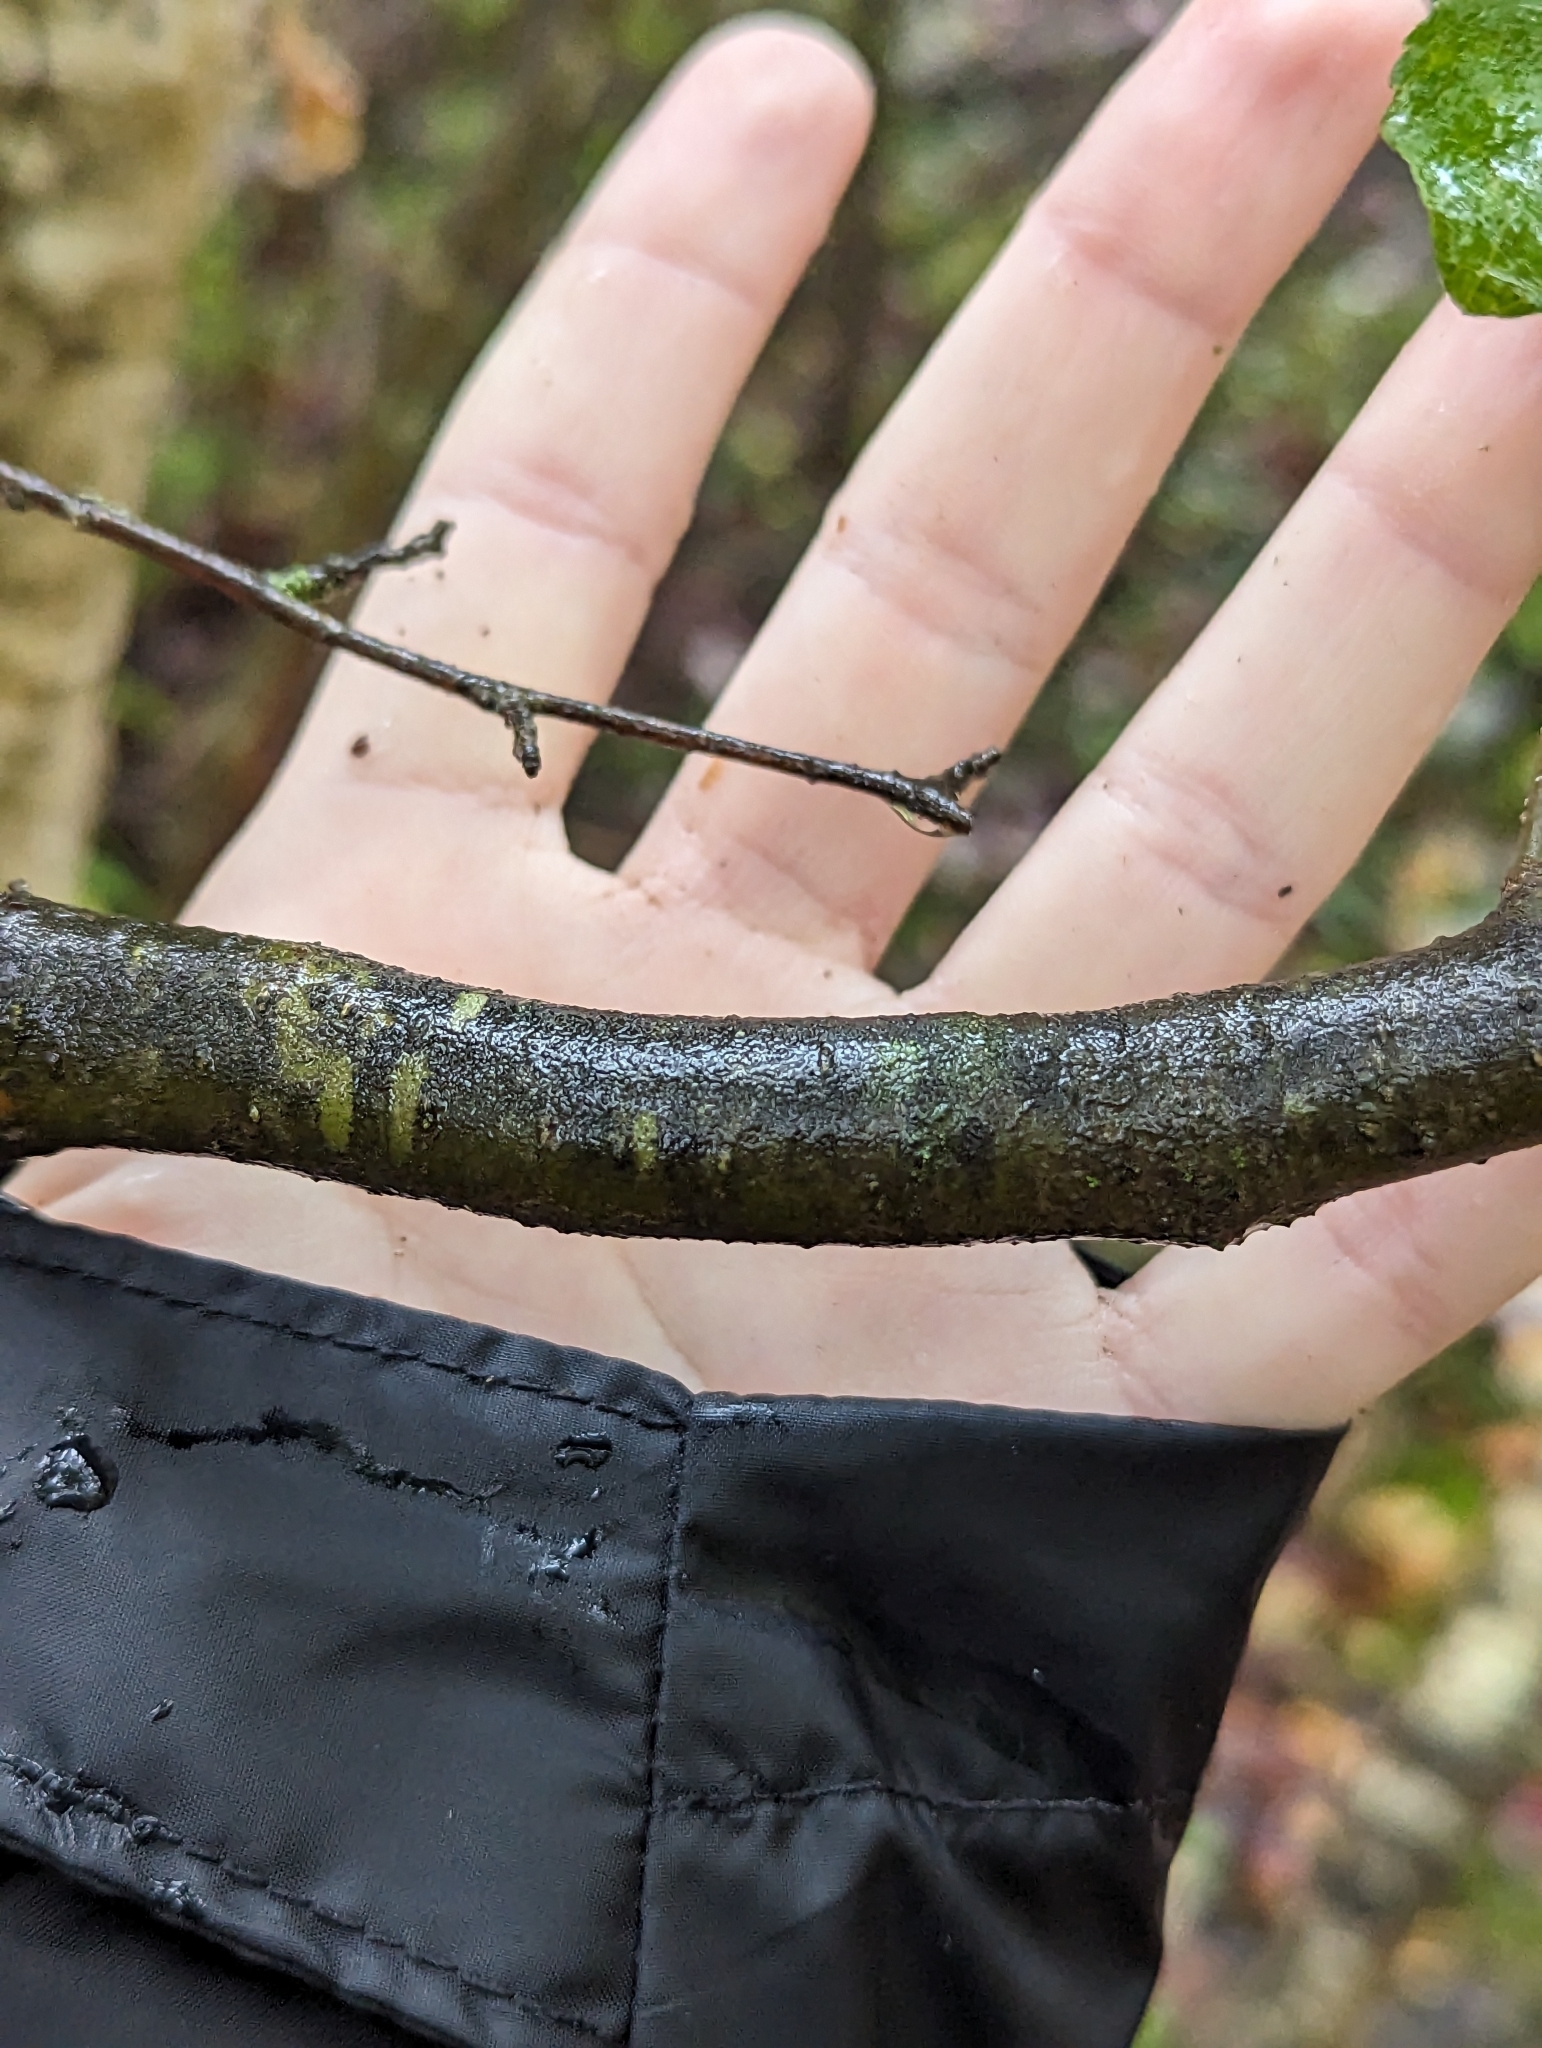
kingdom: Plantae
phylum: Tracheophyta
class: Magnoliopsida
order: Aquifoliales
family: Aquifoliaceae
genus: Ilex
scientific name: Ilex verticillata
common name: Virginia winterberry
